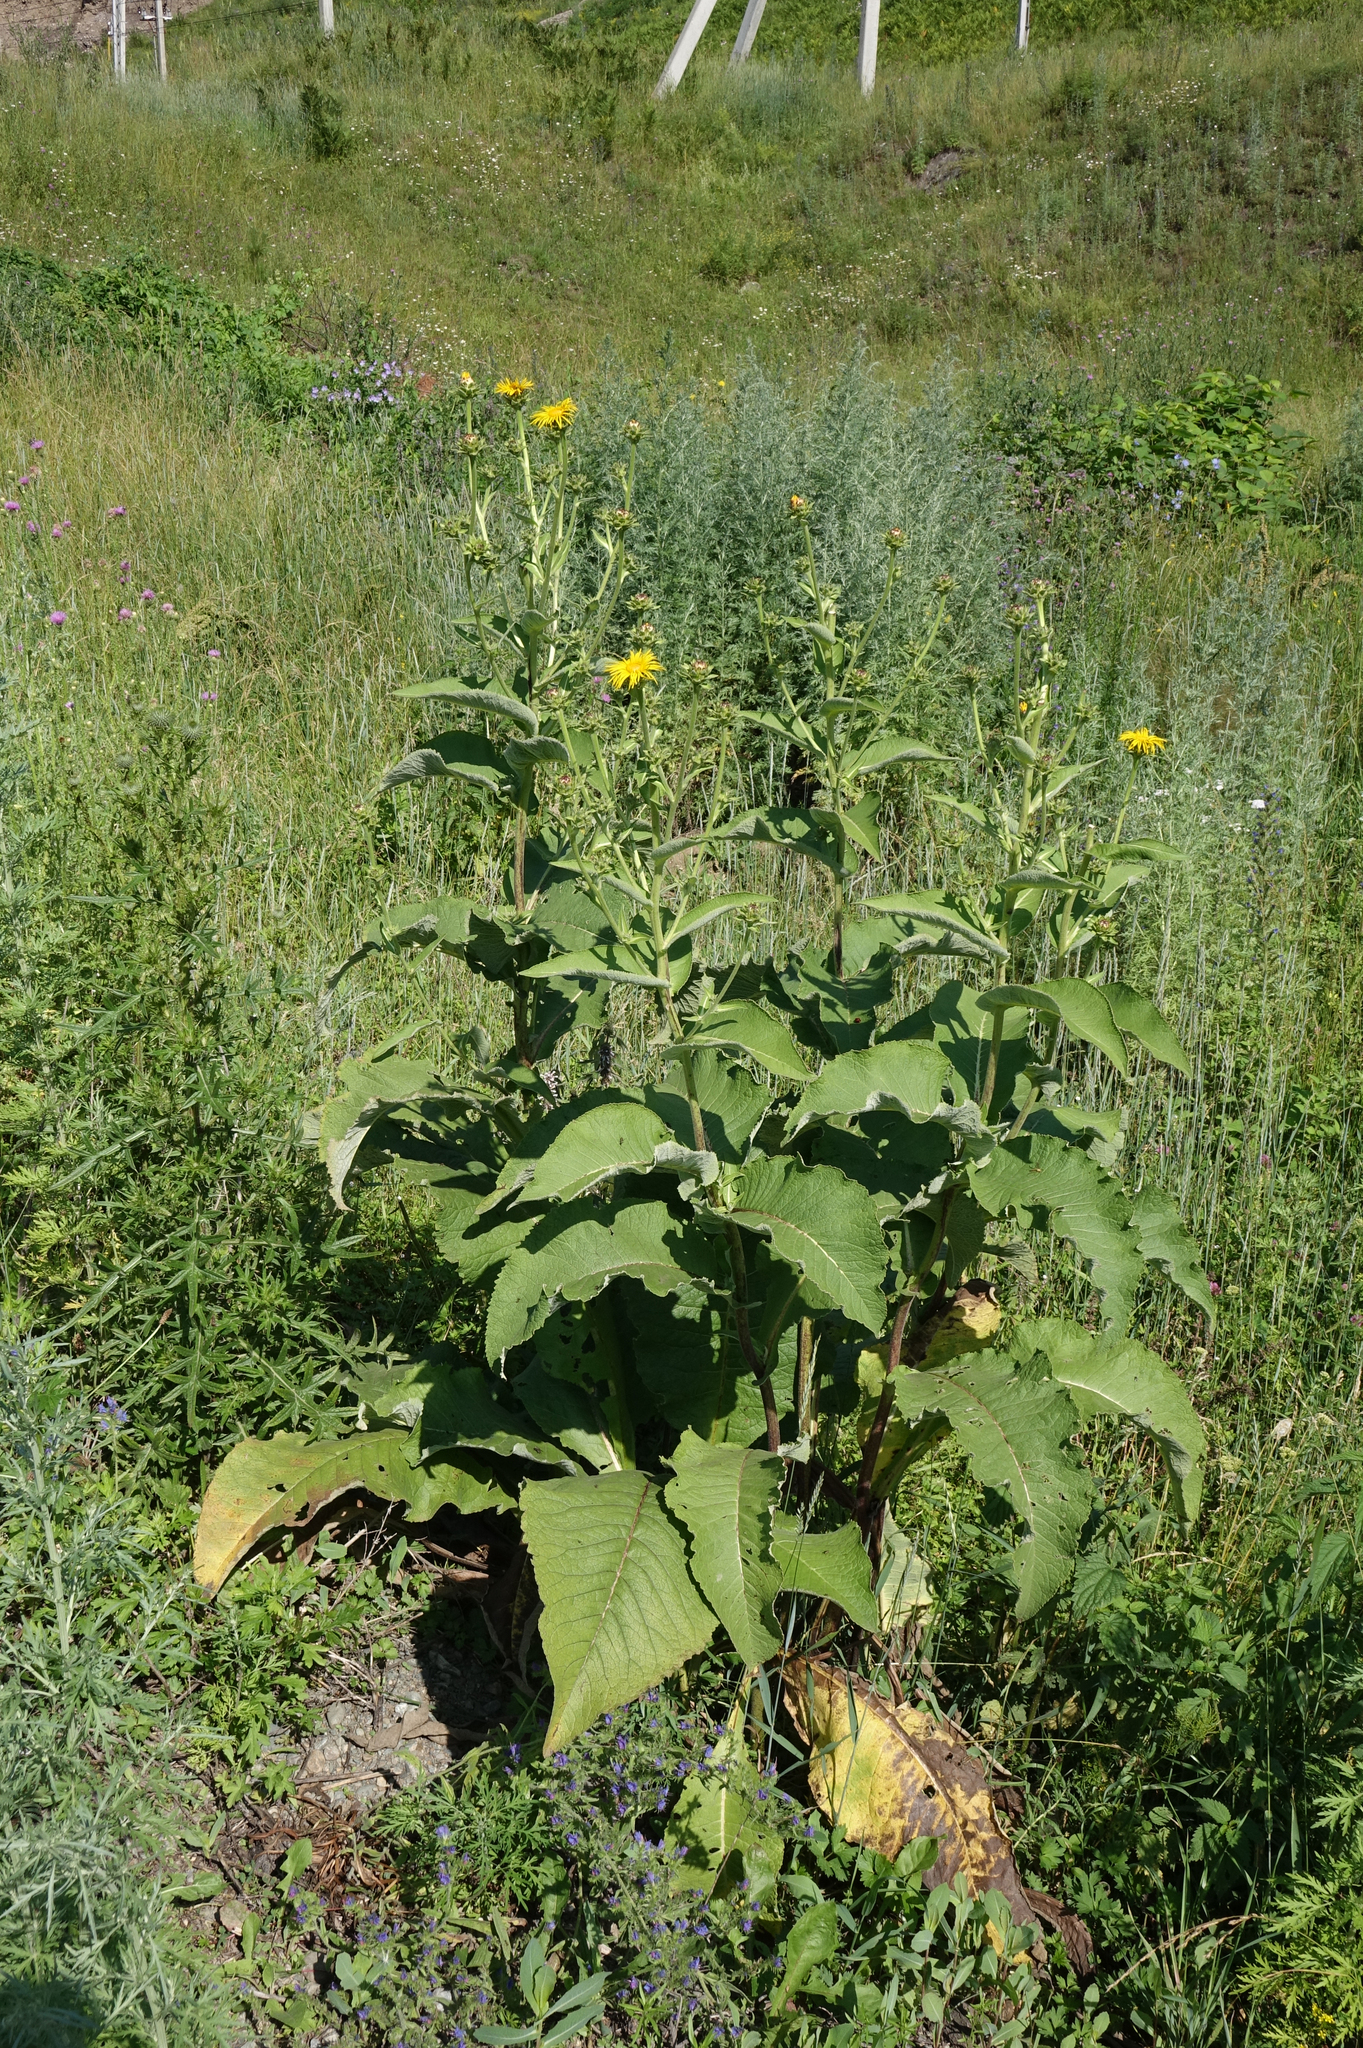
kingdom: Plantae
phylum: Tracheophyta
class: Magnoliopsida
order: Asterales
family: Asteraceae
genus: Inula
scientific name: Inula helenium
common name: Elecampane
